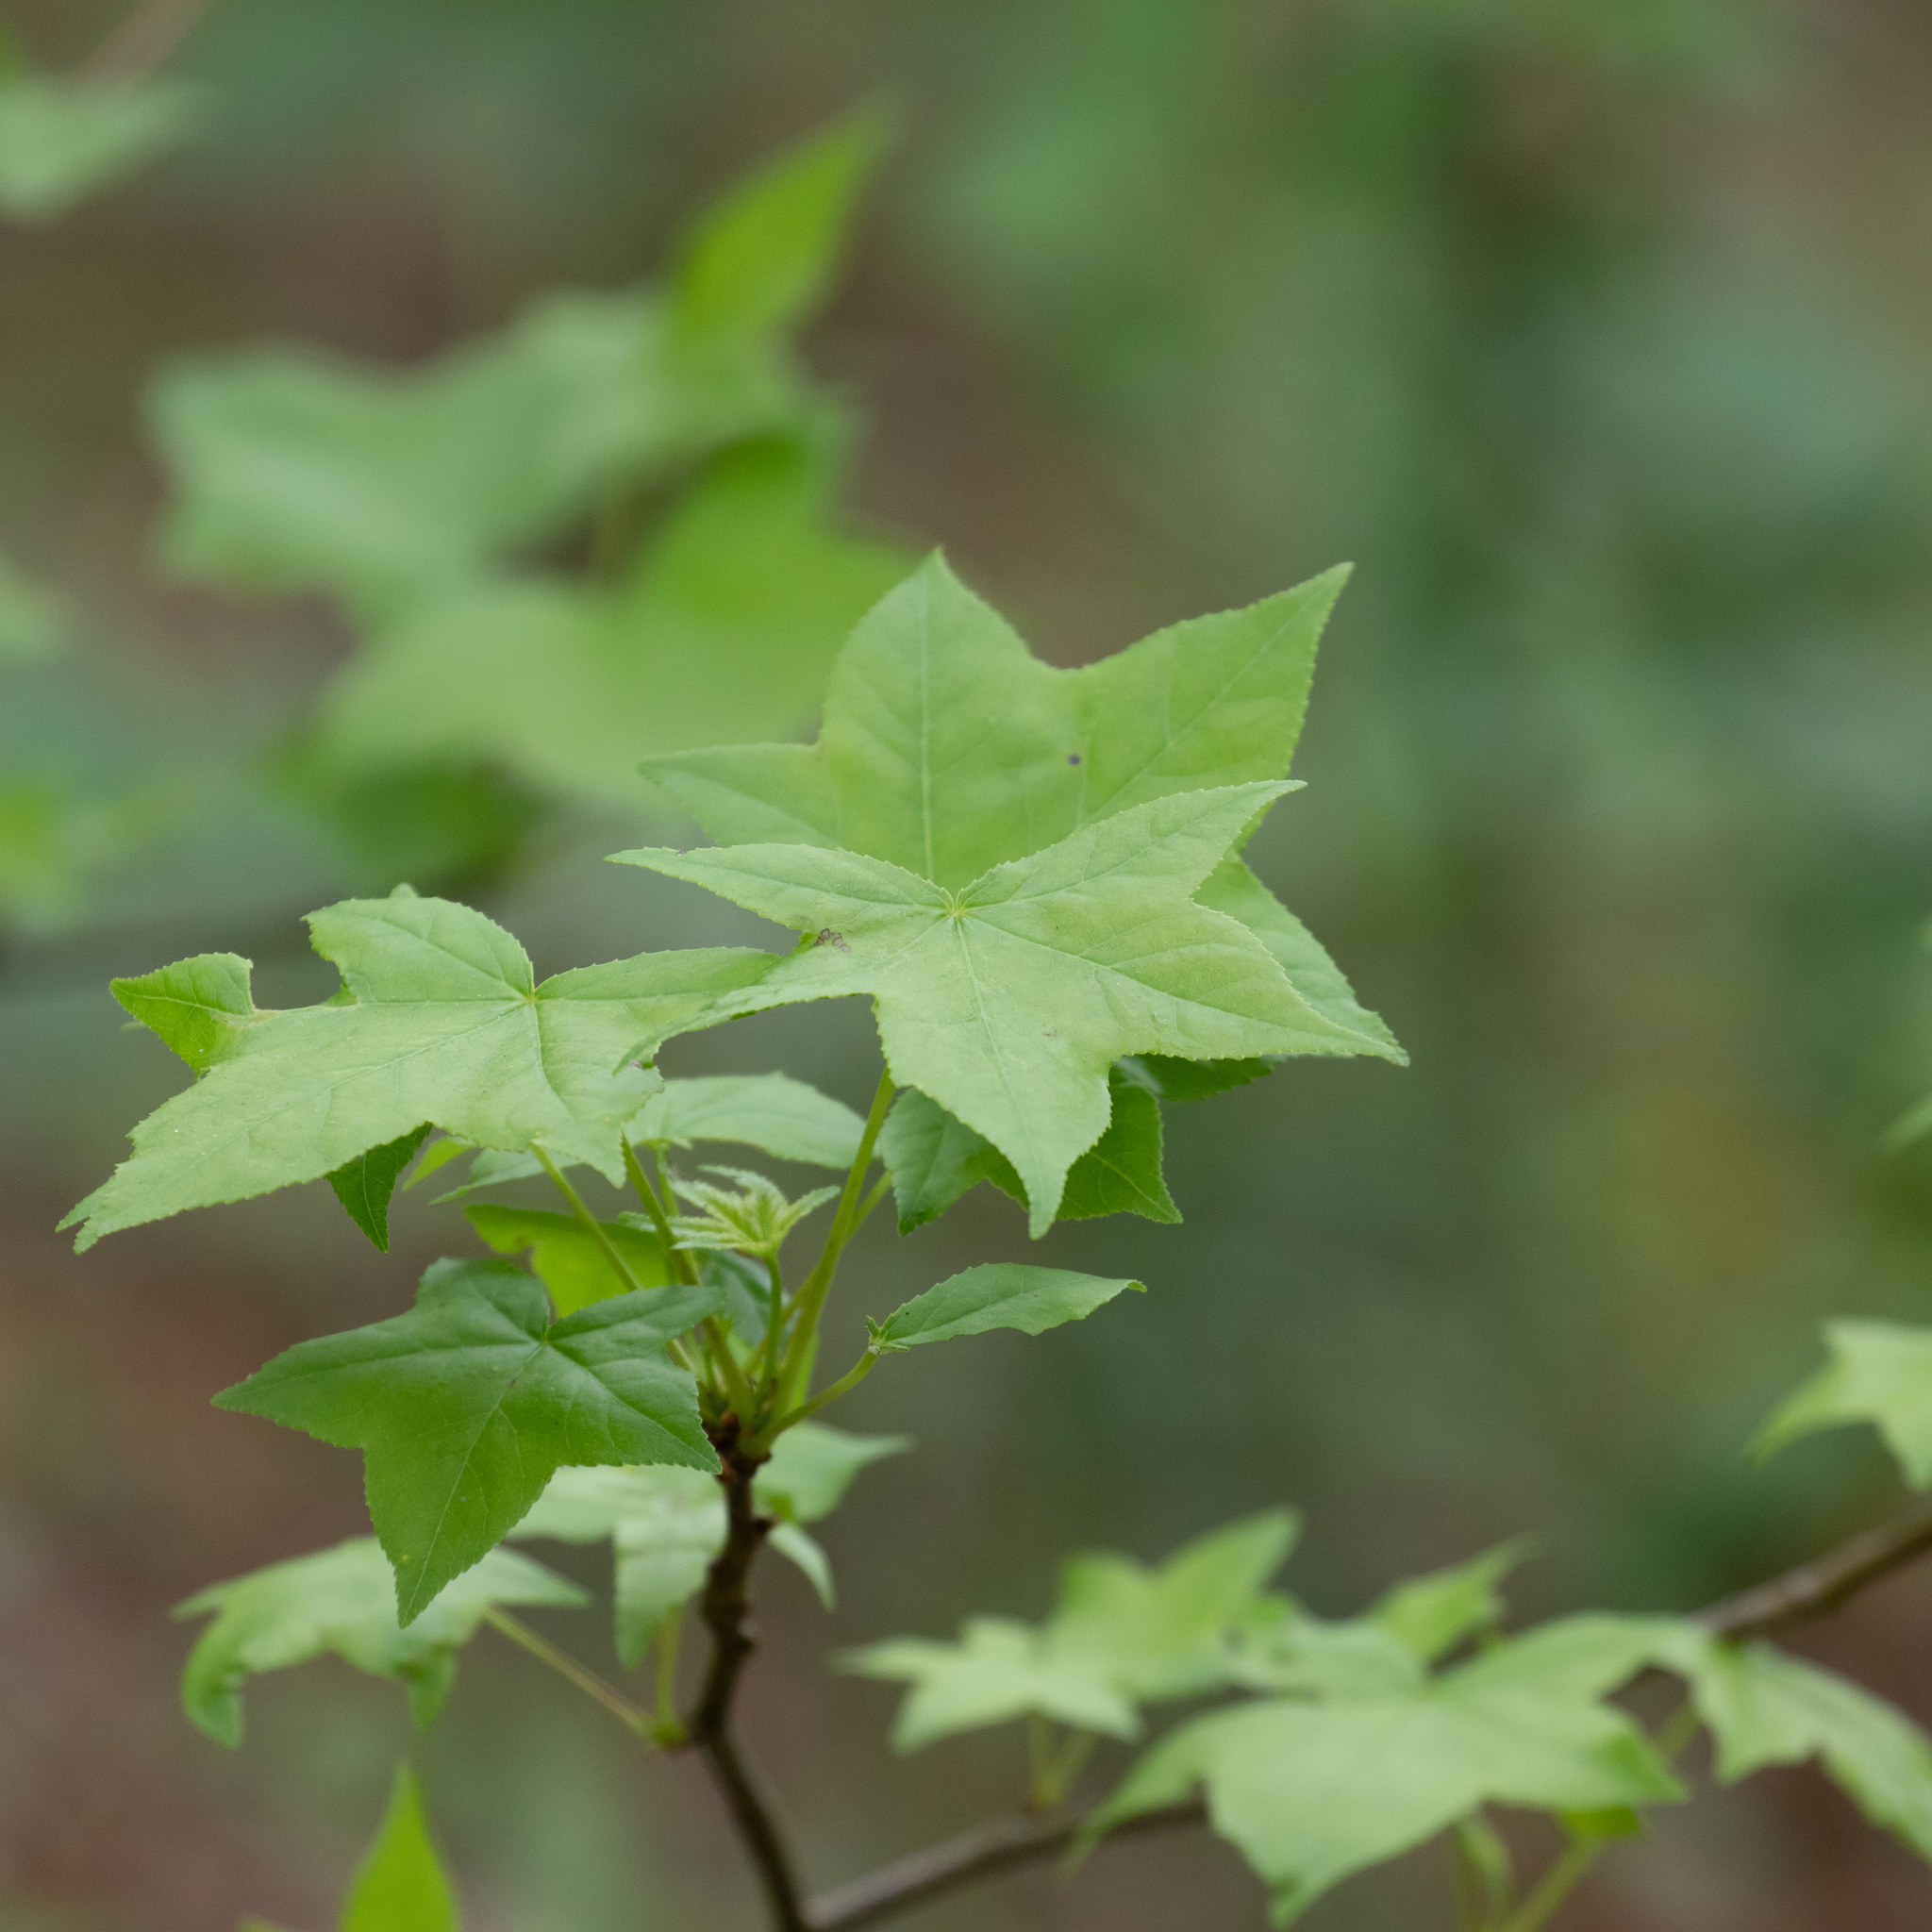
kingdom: Plantae
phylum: Tracheophyta
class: Magnoliopsida
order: Saxifragales
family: Altingiaceae
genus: Liquidambar
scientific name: Liquidambar styraciflua
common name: Sweet gum
